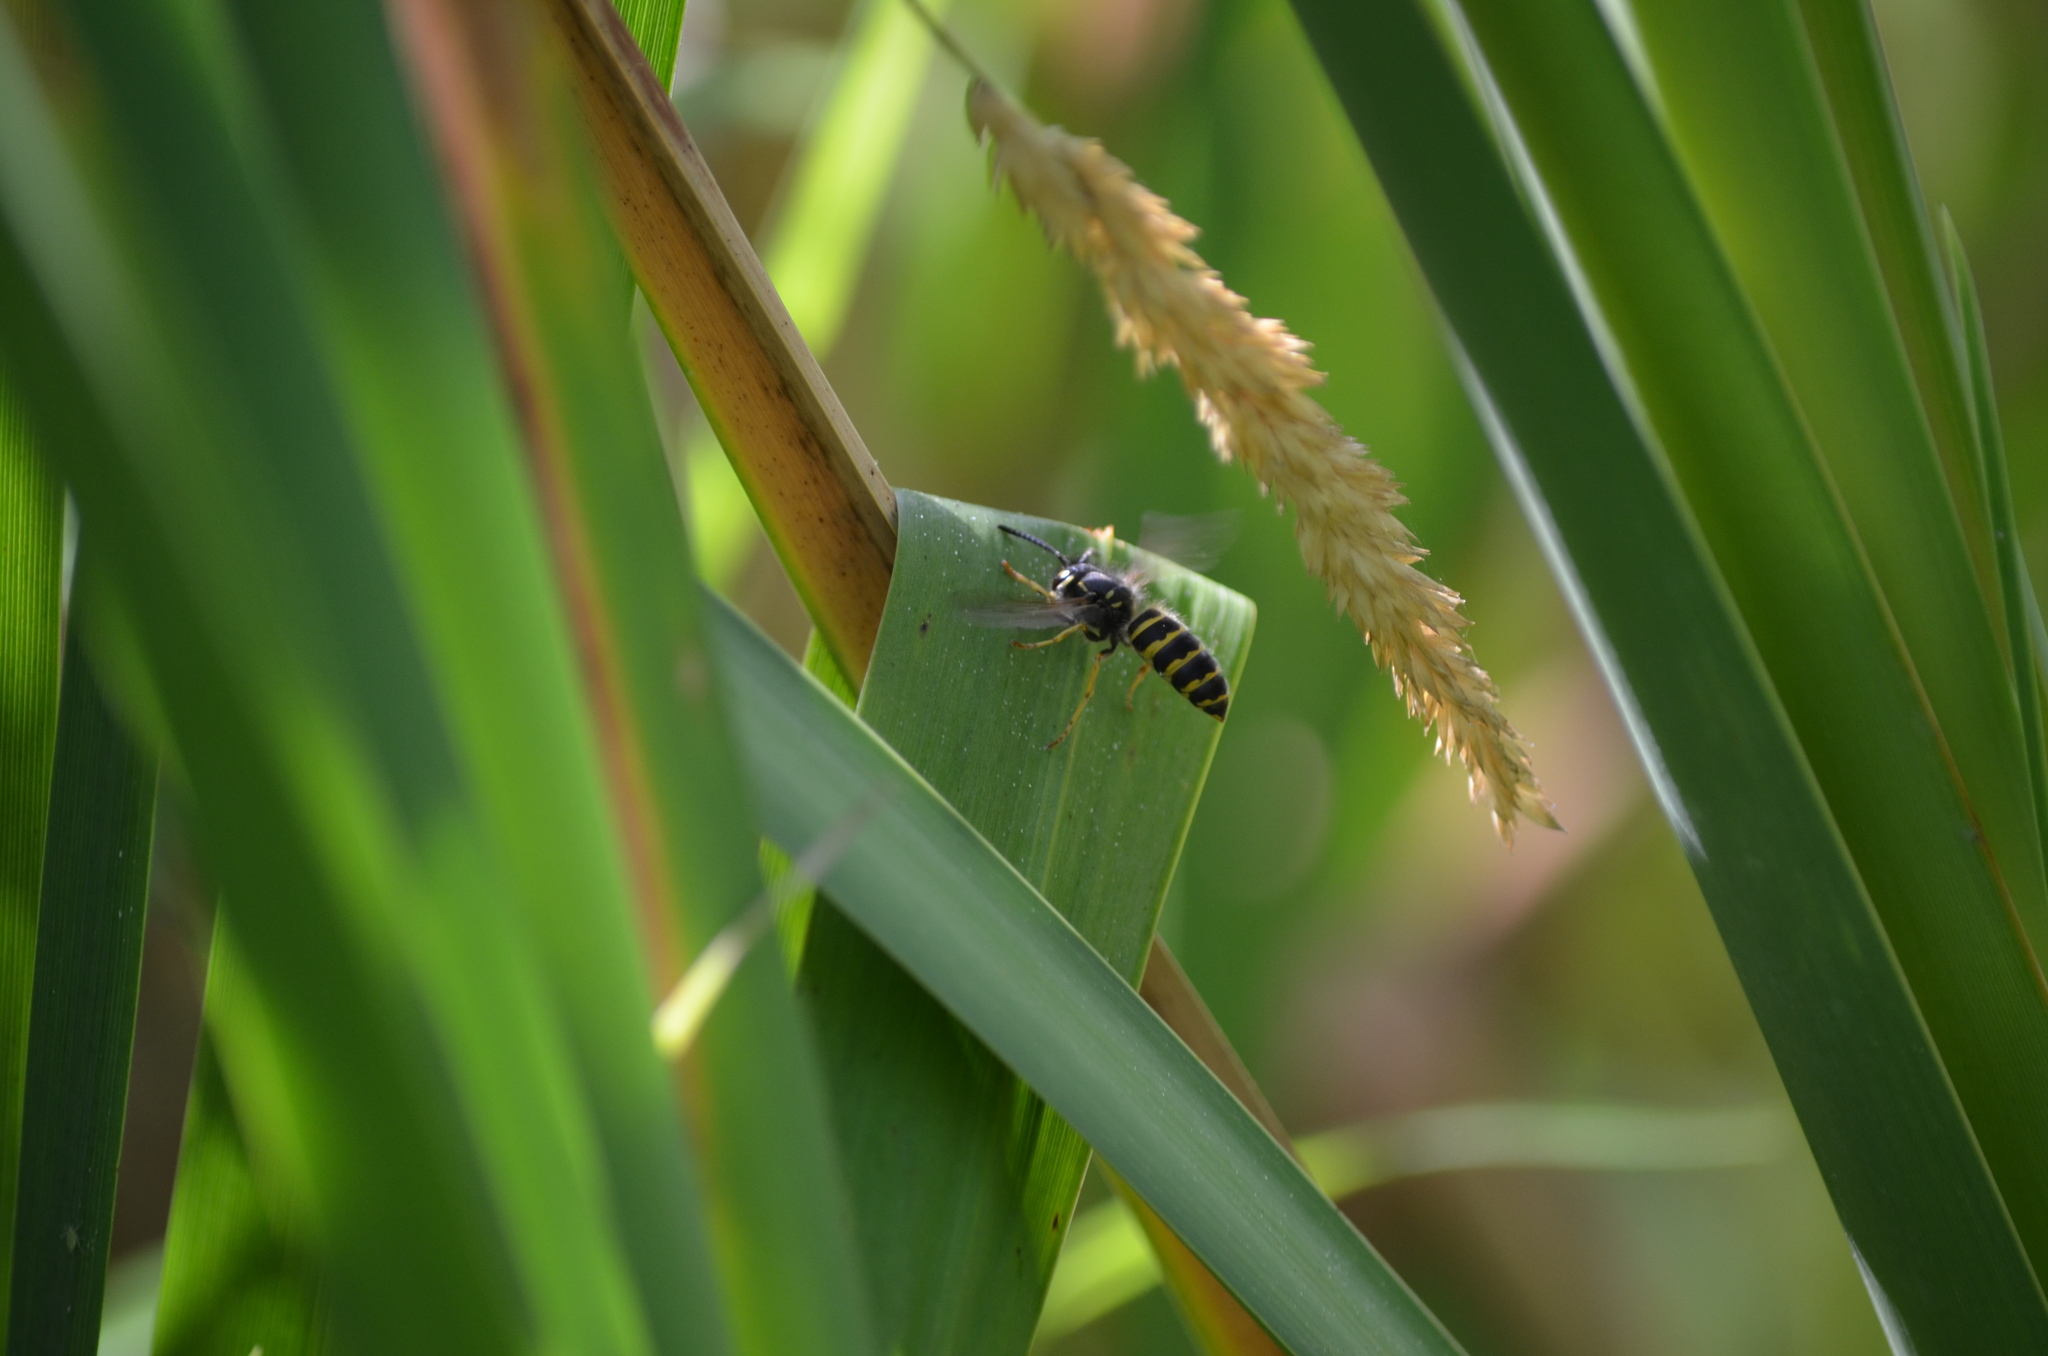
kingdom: Animalia
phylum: Arthropoda
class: Insecta
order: Hymenoptera
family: Vespidae
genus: Vespula
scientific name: Vespula alascensis
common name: Alaska yellowjacket
